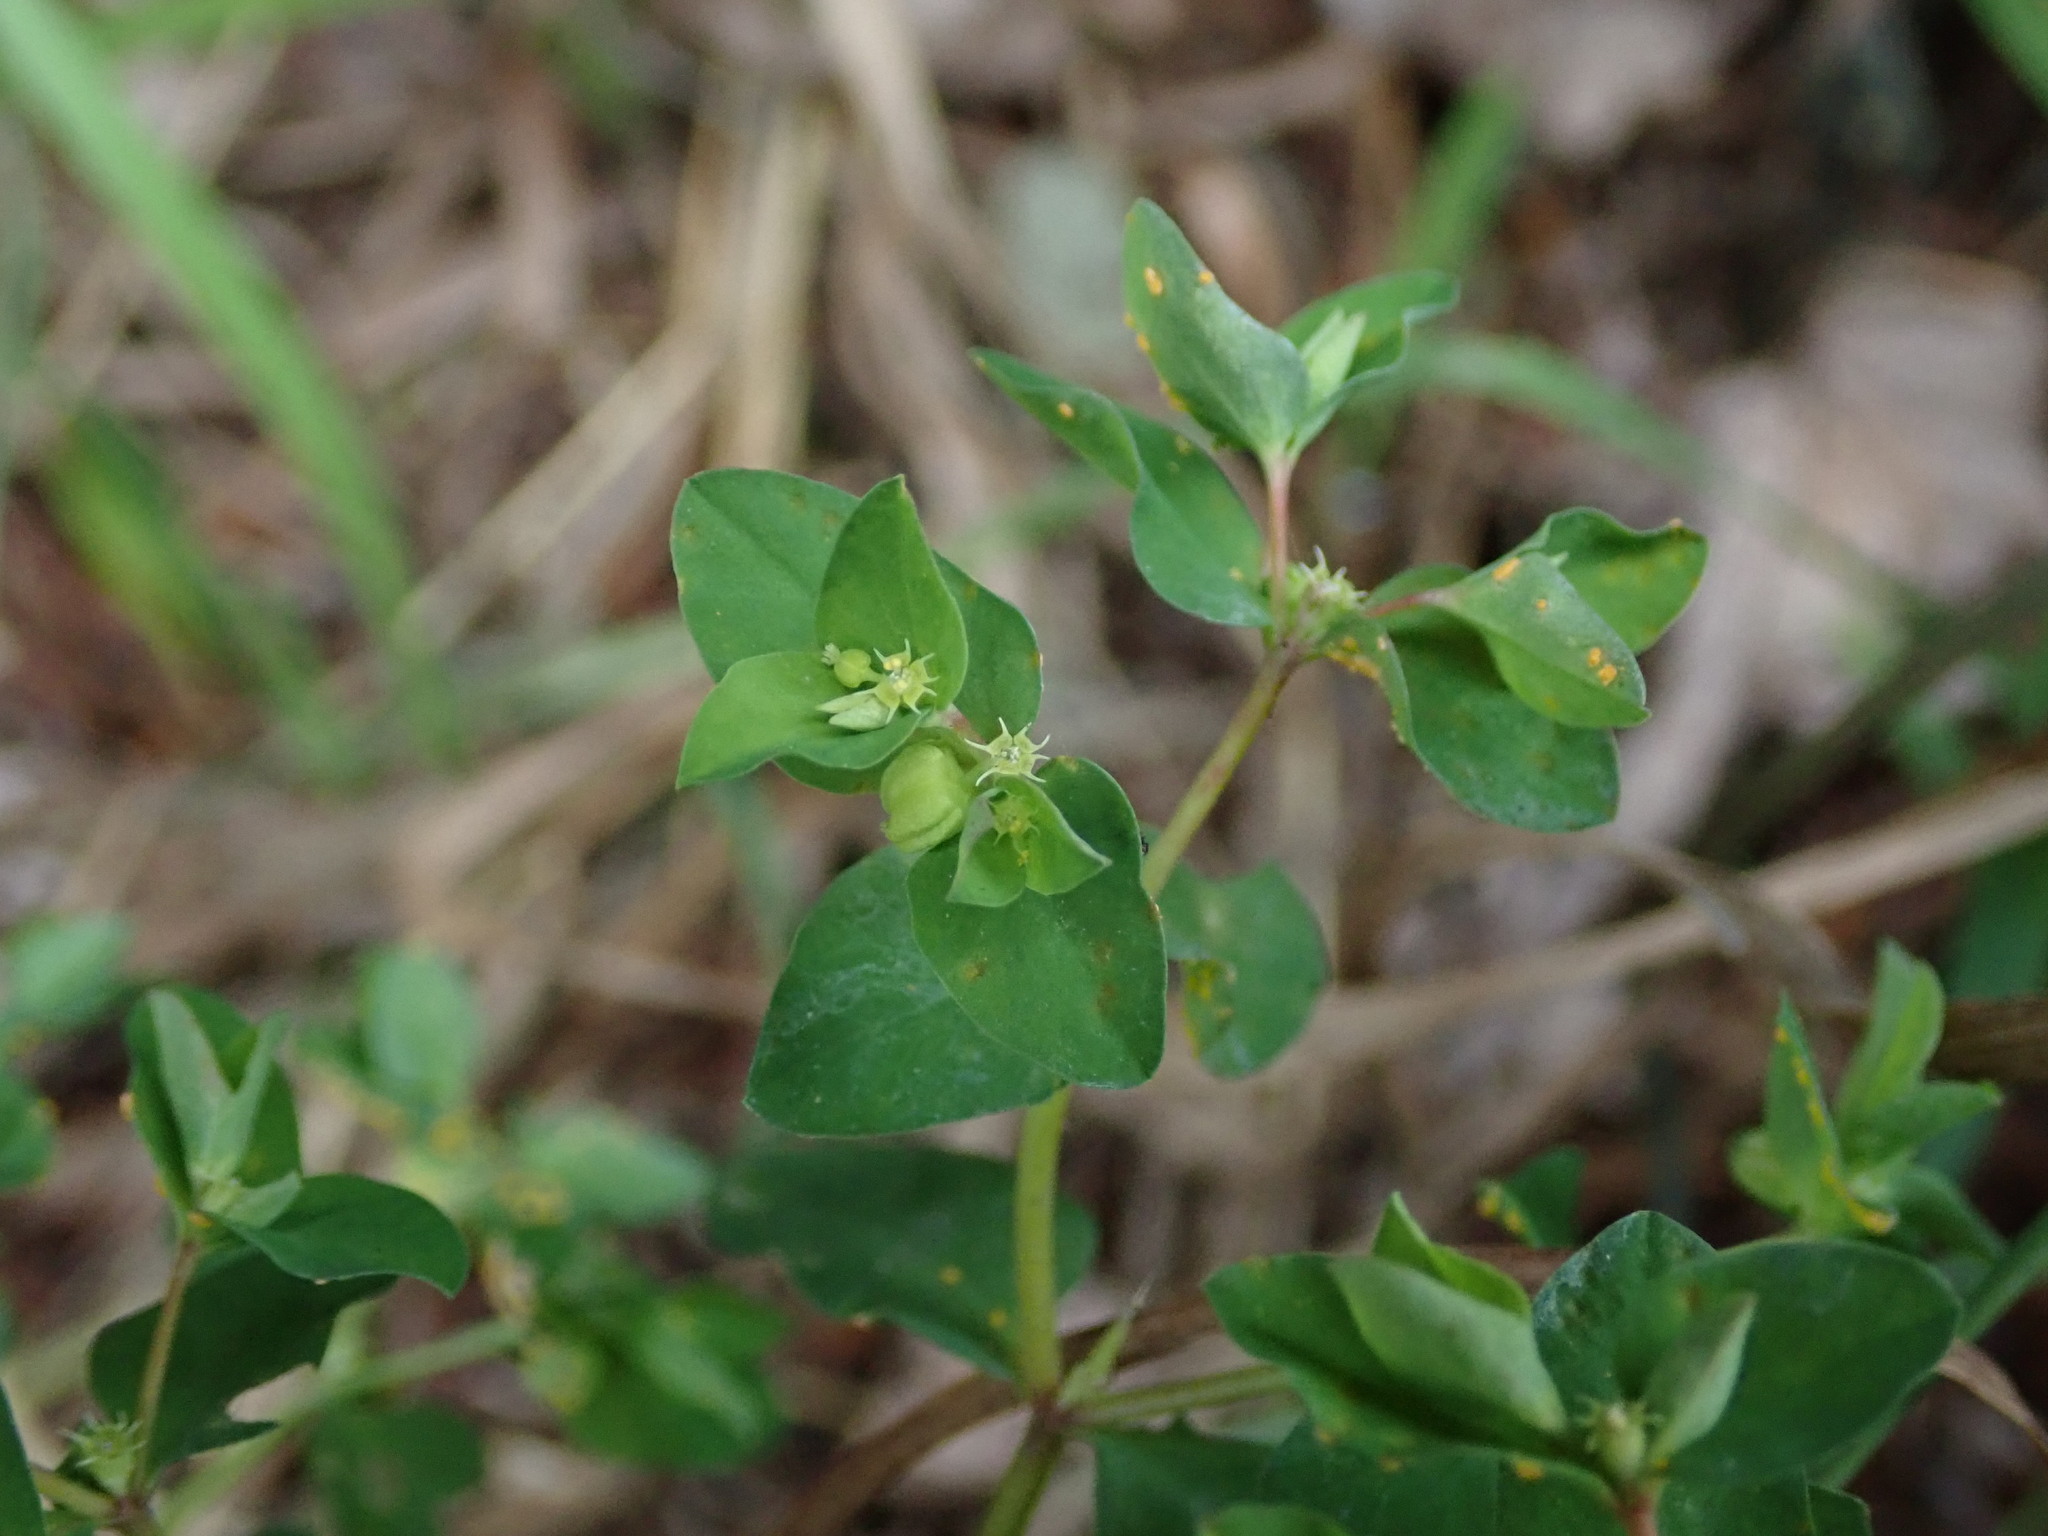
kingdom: Plantae
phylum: Tracheophyta
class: Magnoliopsida
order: Malpighiales
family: Euphorbiaceae
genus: Euphorbia
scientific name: Euphorbia peplus
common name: Petty spurge
